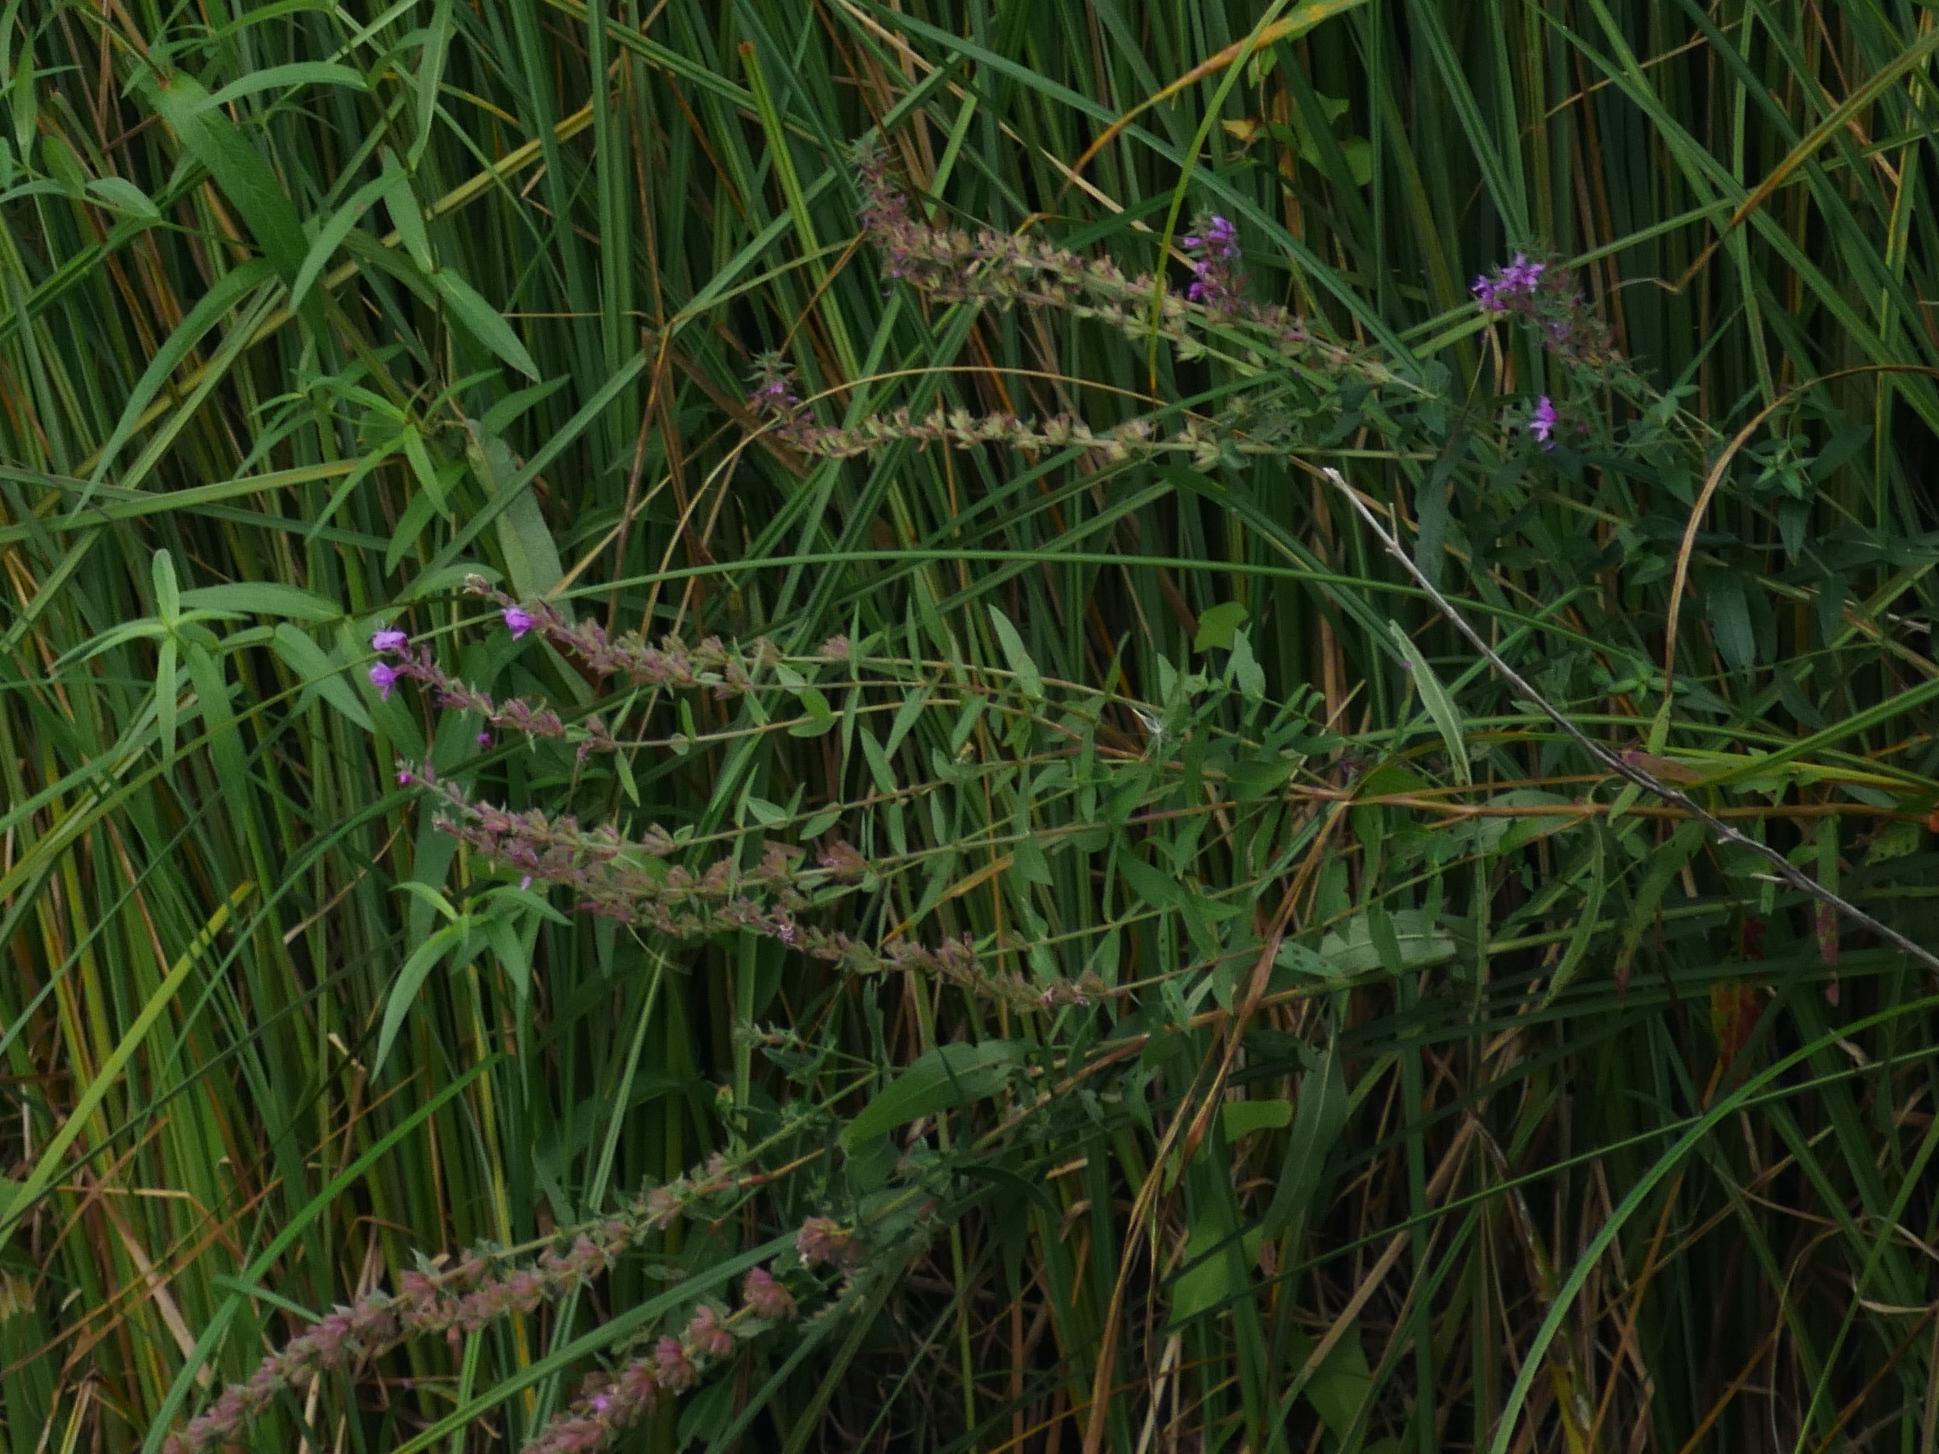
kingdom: Plantae
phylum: Tracheophyta
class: Magnoliopsida
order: Myrtales
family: Lythraceae
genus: Lythrum
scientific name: Lythrum salicaria
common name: Purple loosestrife
